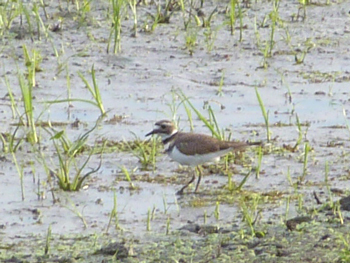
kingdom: Animalia
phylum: Chordata
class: Aves
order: Charadriiformes
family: Charadriidae
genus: Charadrius
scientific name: Charadrius vociferus
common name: Killdeer
